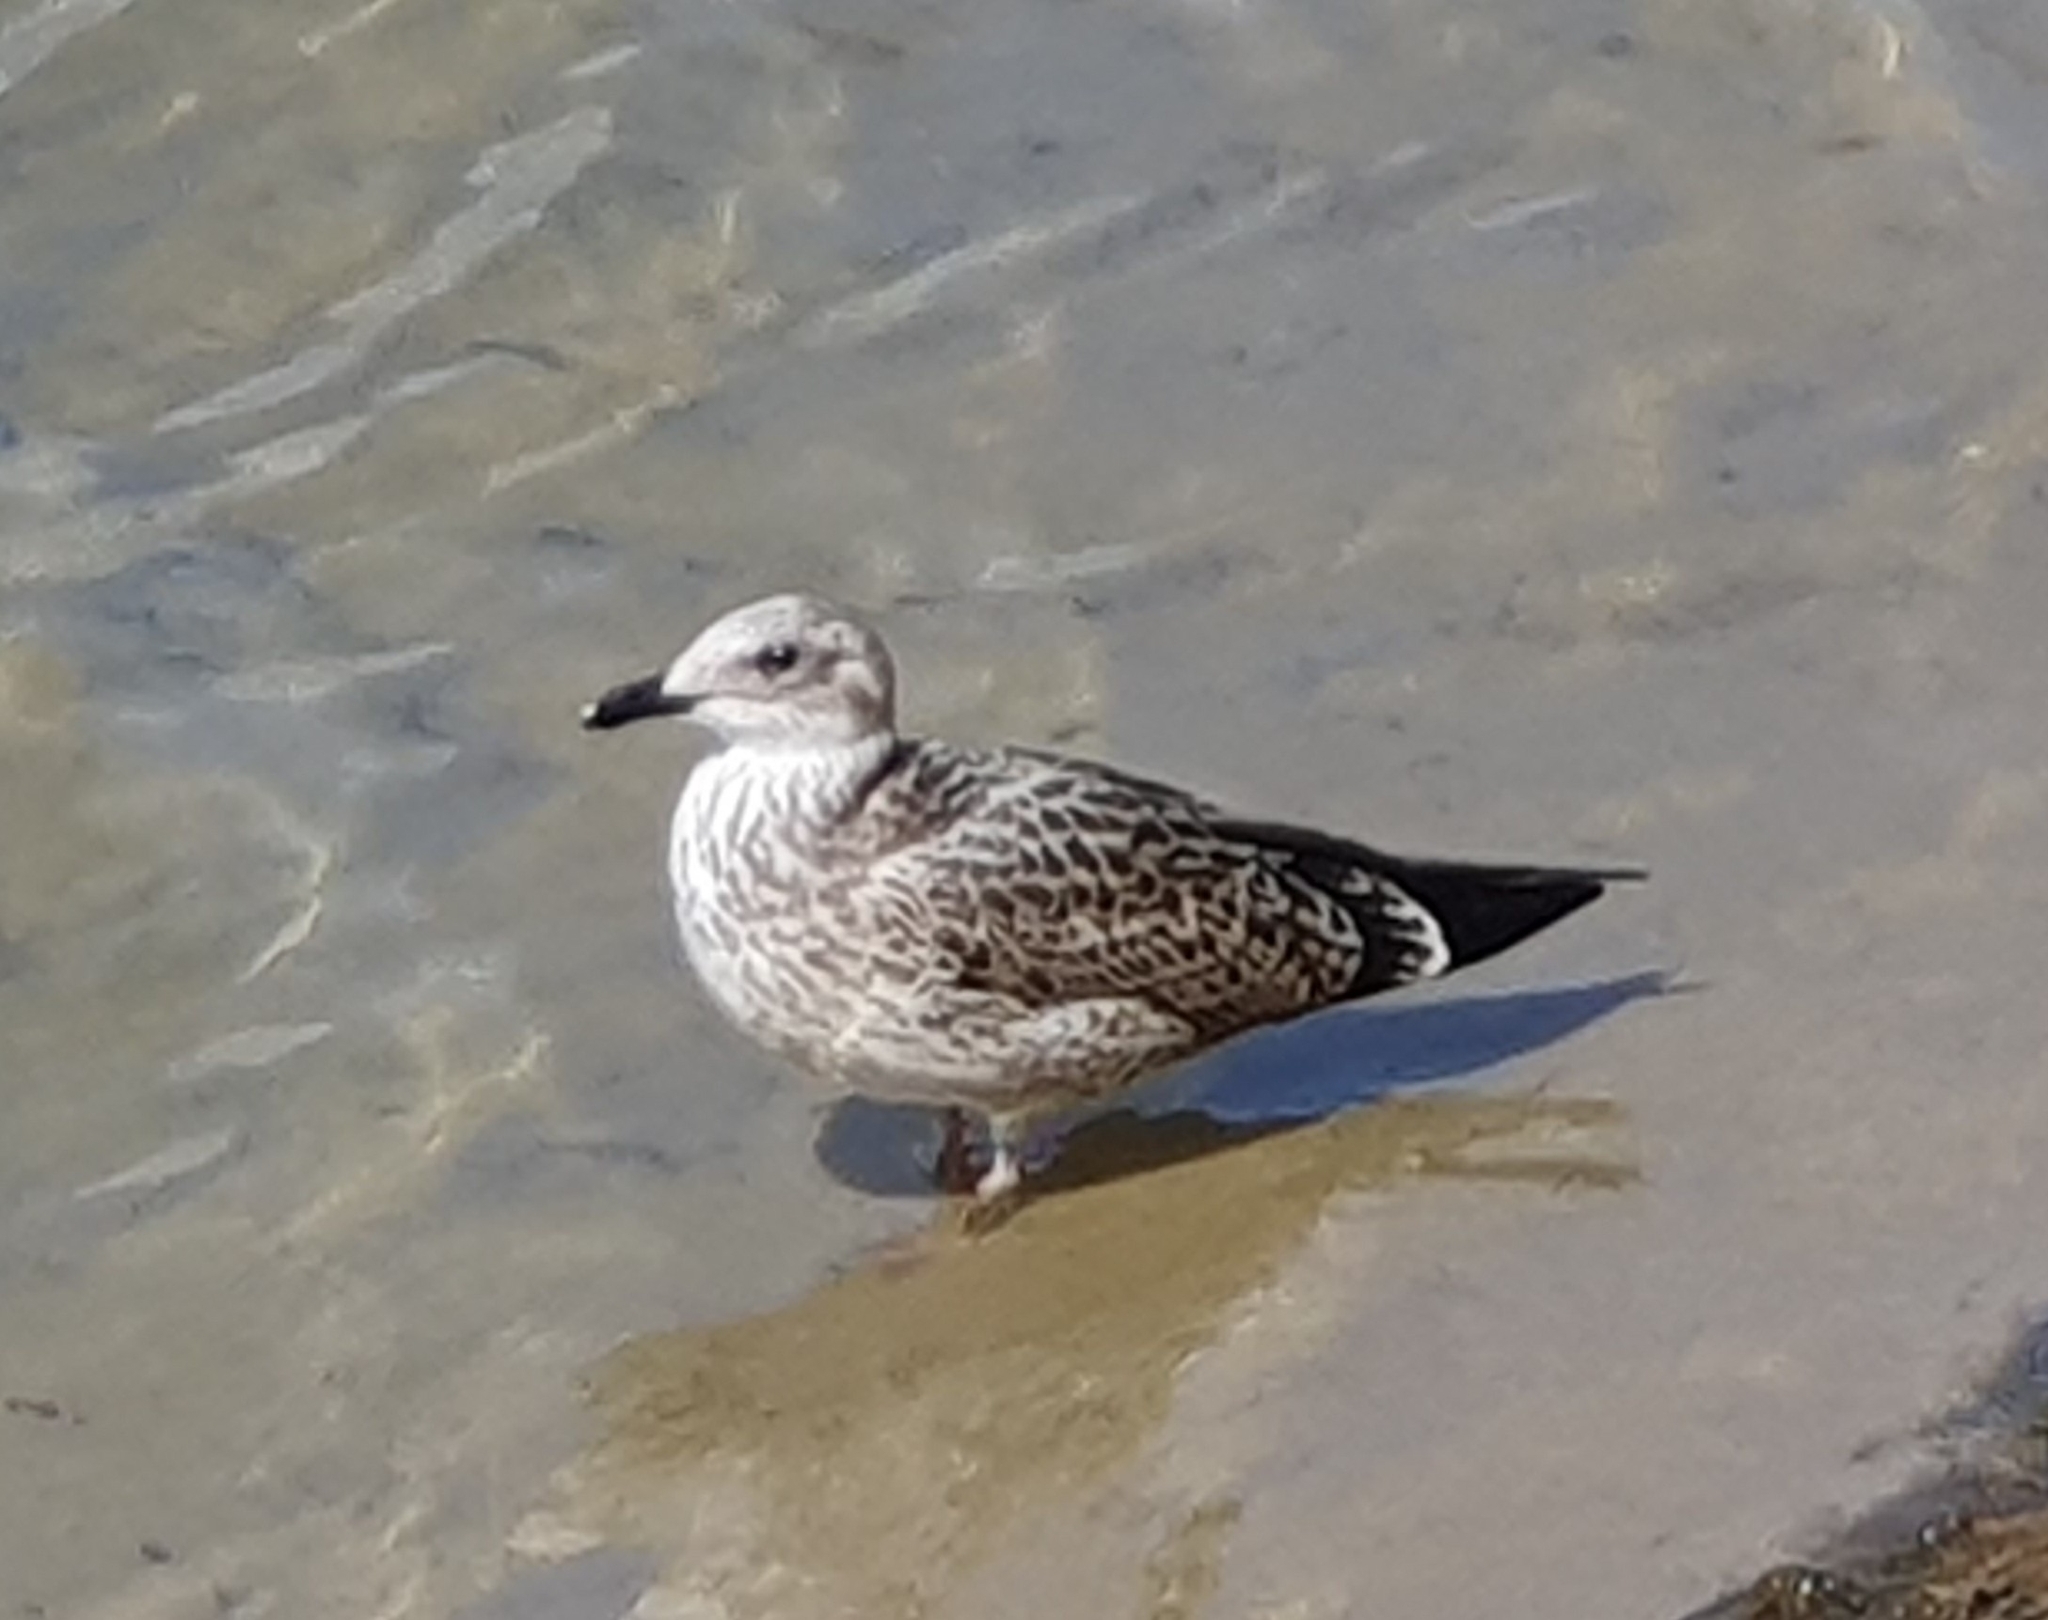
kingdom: Animalia
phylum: Chordata
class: Aves
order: Charadriiformes
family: Laridae
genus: Larus
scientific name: Larus fuscus
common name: Lesser black-backed gull
